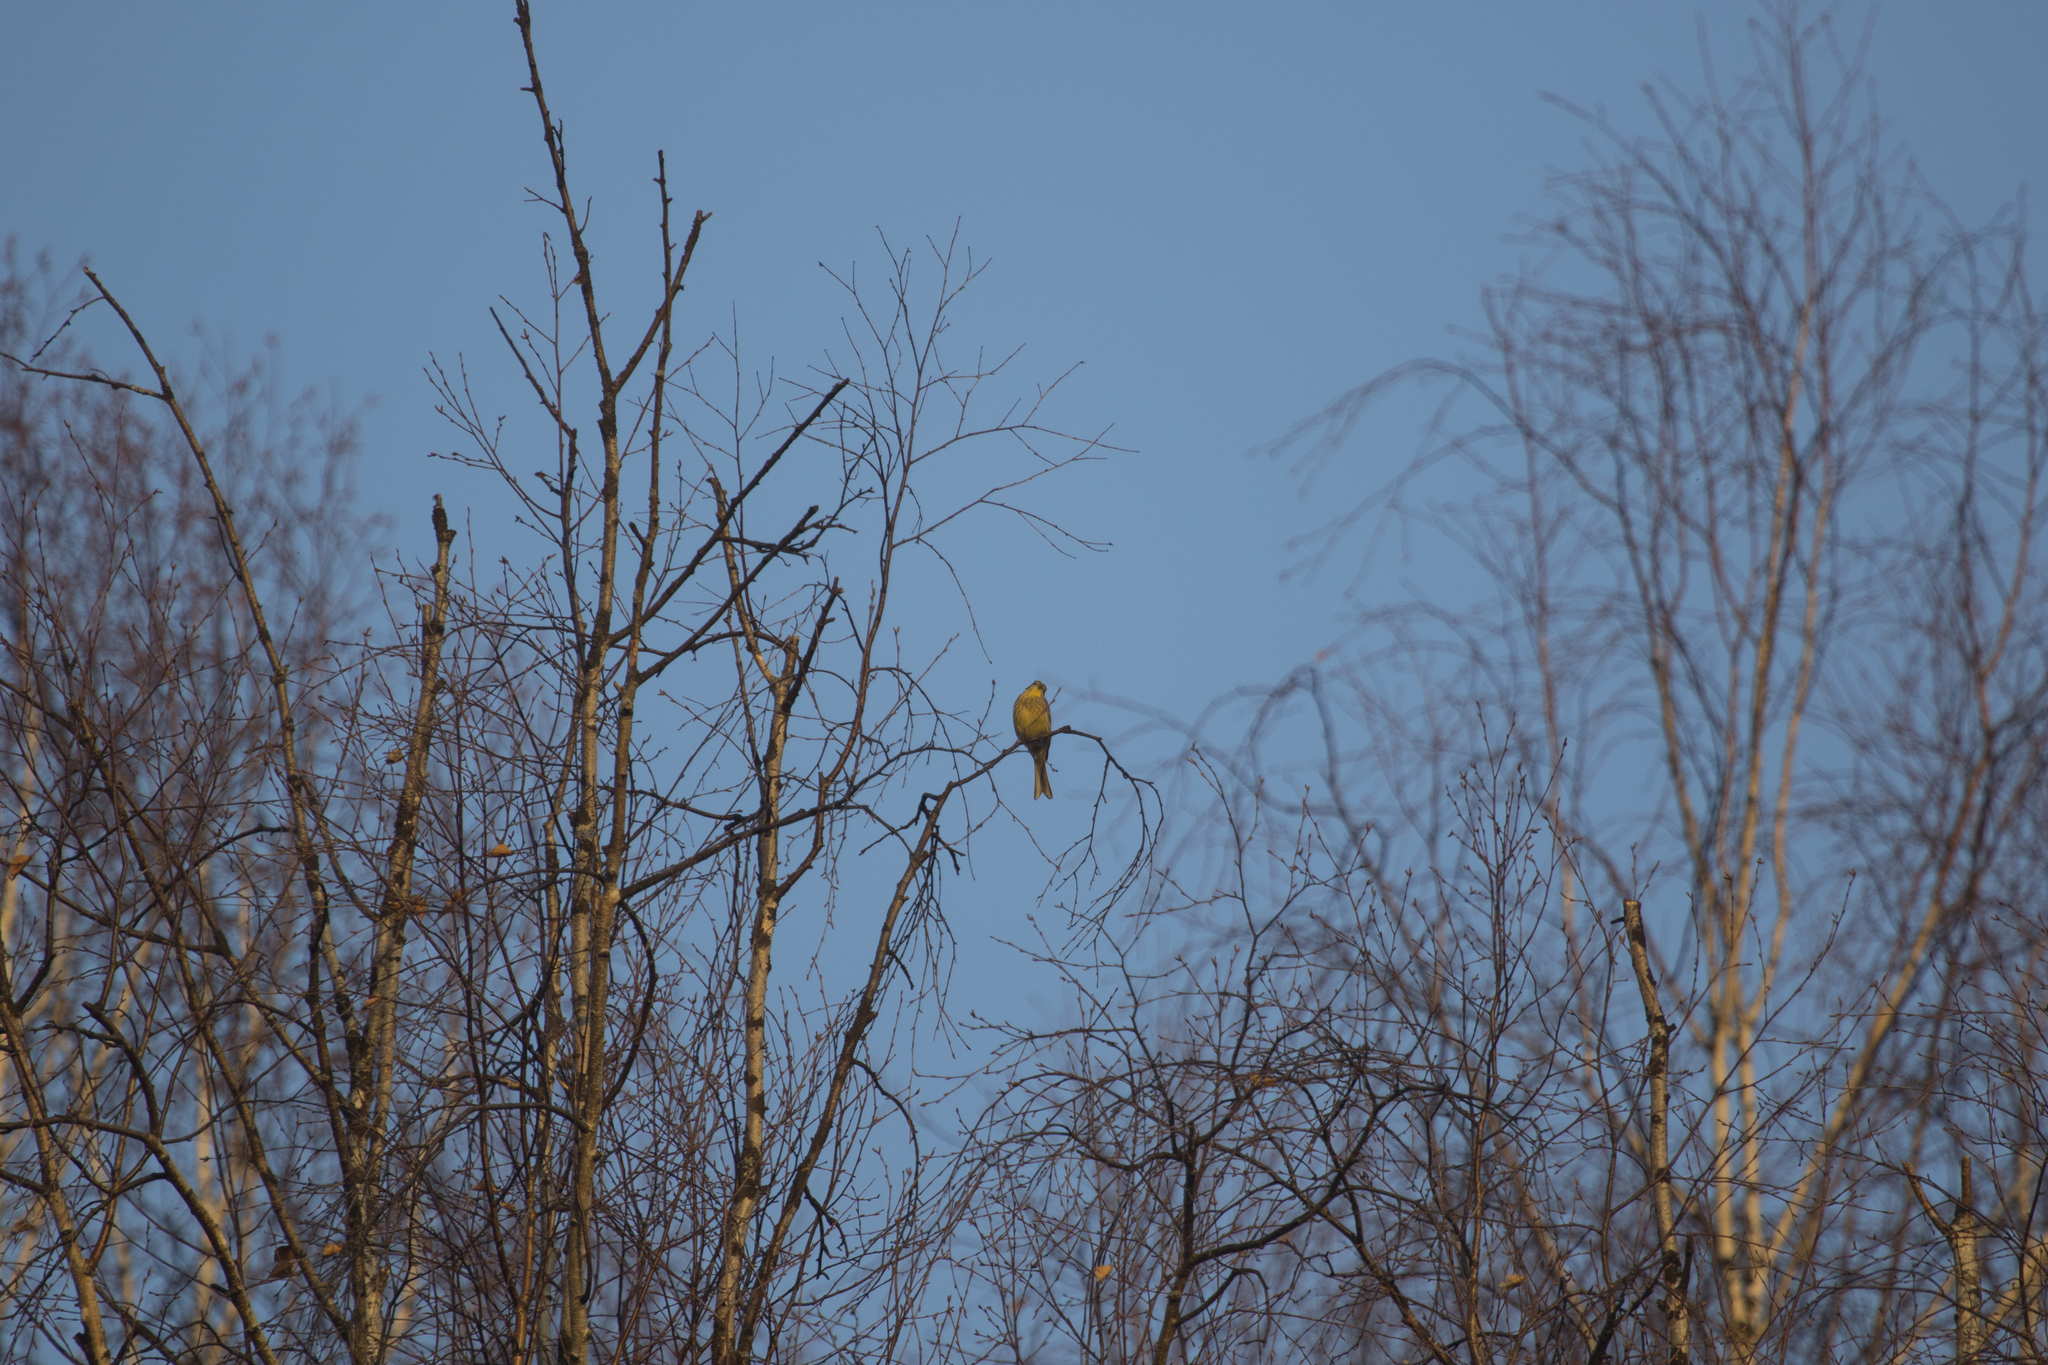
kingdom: Animalia
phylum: Chordata
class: Aves
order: Passeriformes
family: Emberizidae
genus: Emberiza
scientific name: Emberiza citrinella
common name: Yellowhammer
